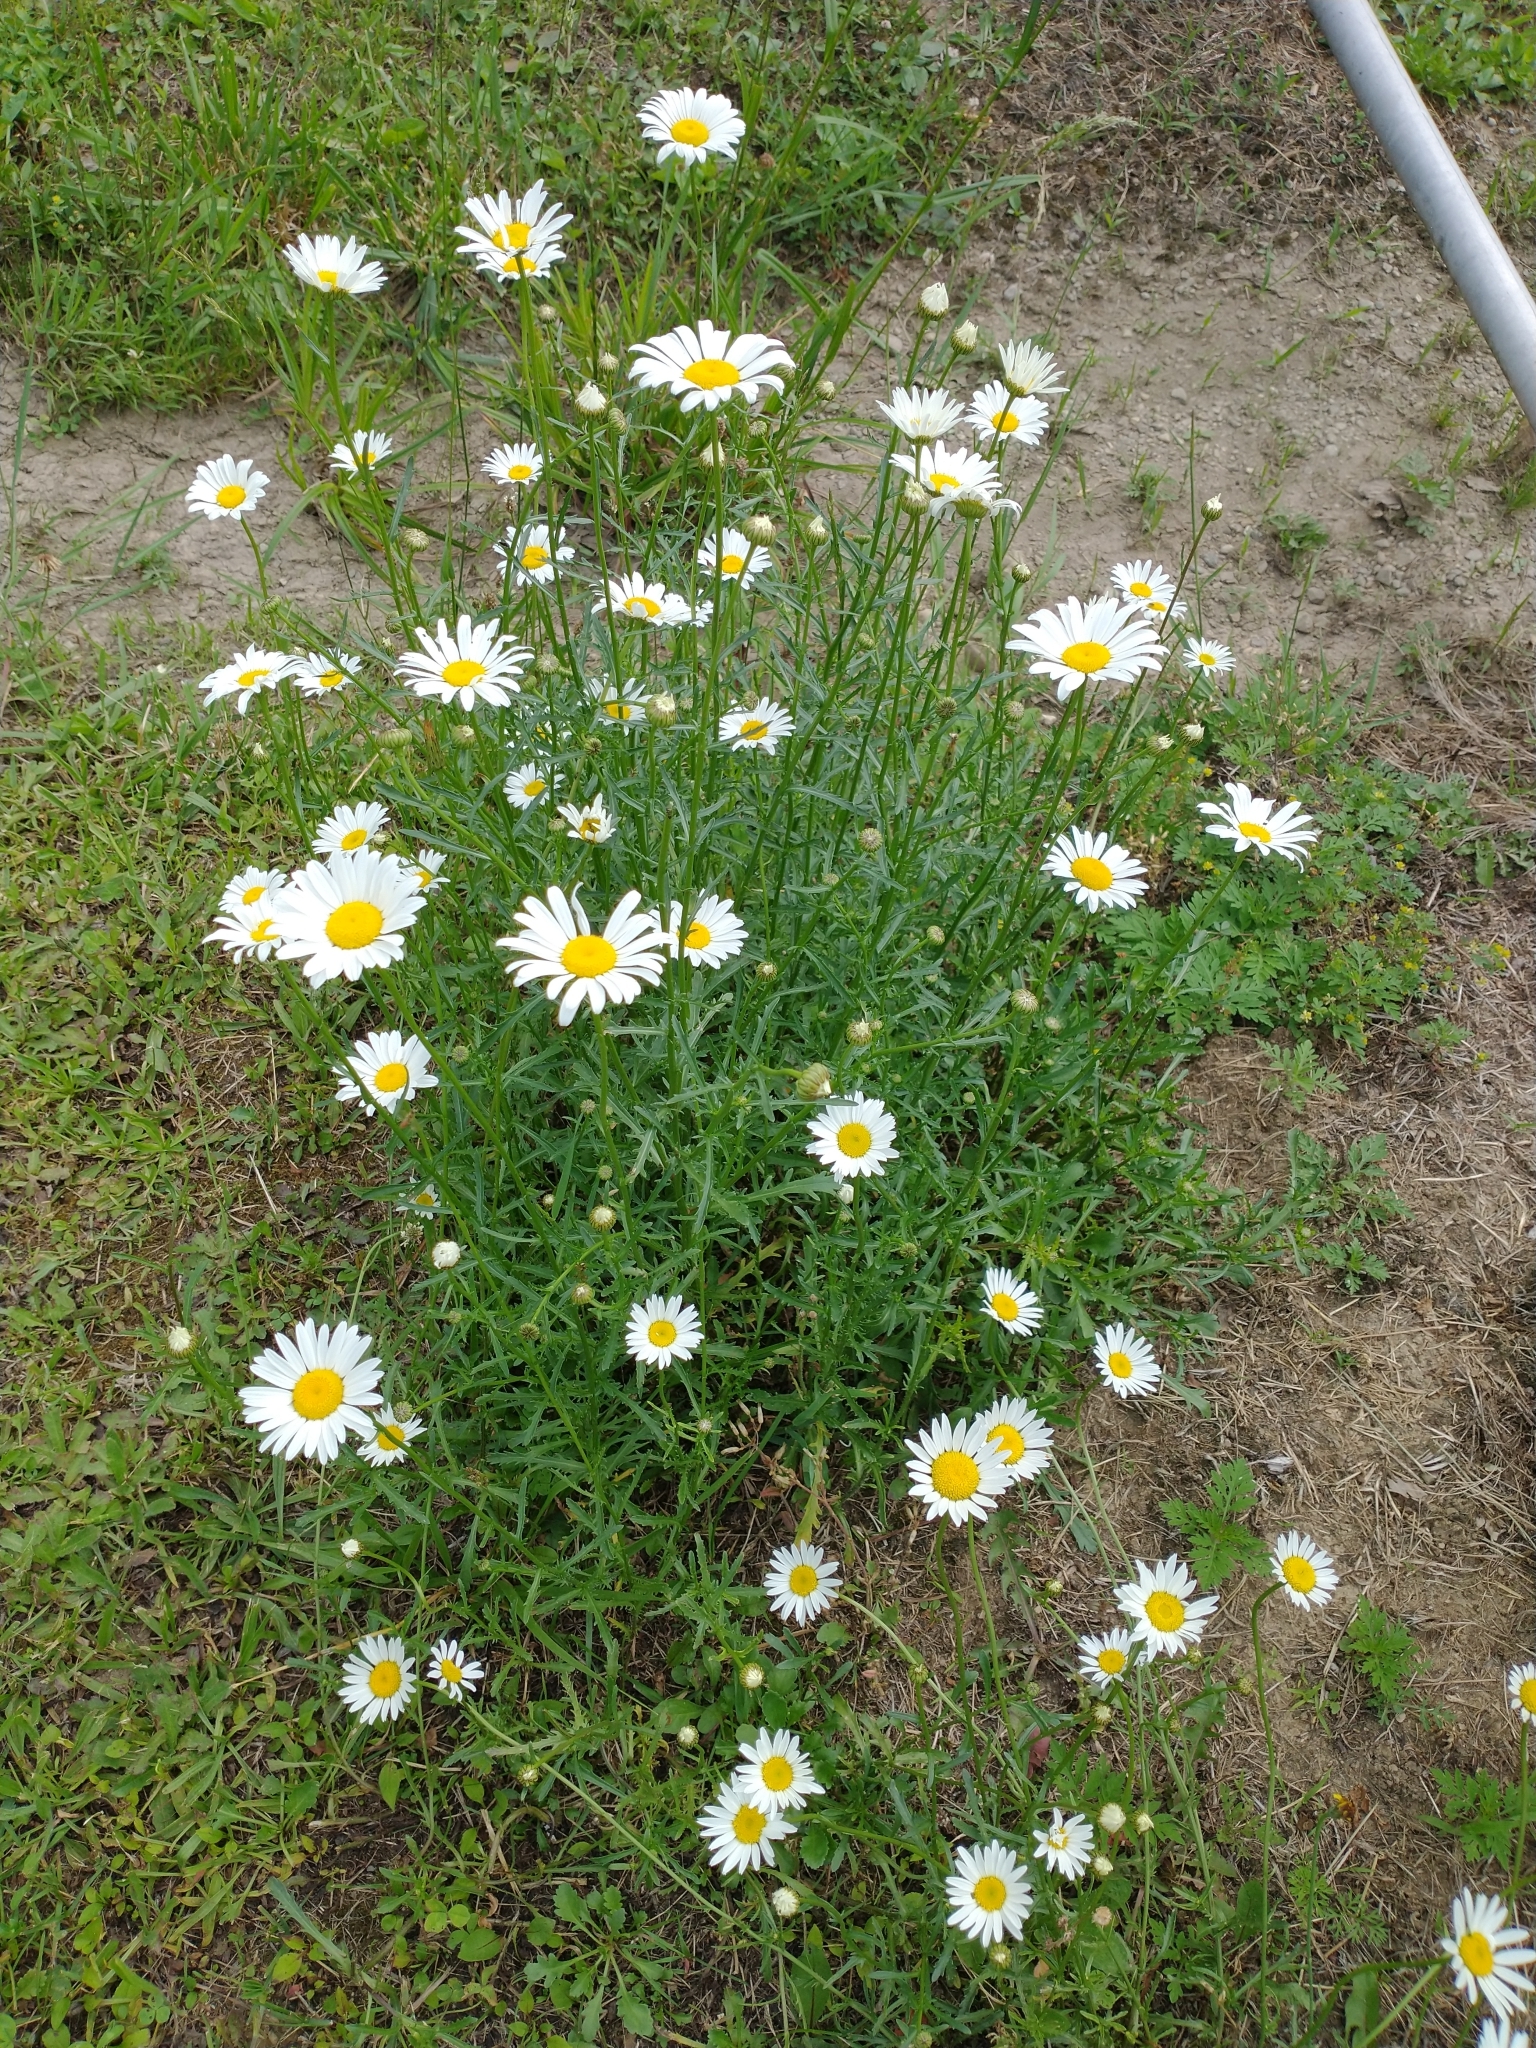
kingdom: Plantae
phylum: Tracheophyta
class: Magnoliopsida
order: Asterales
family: Asteraceae
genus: Leucanthemum
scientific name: Leucanthemum vulgare
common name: Oxeye daisy
